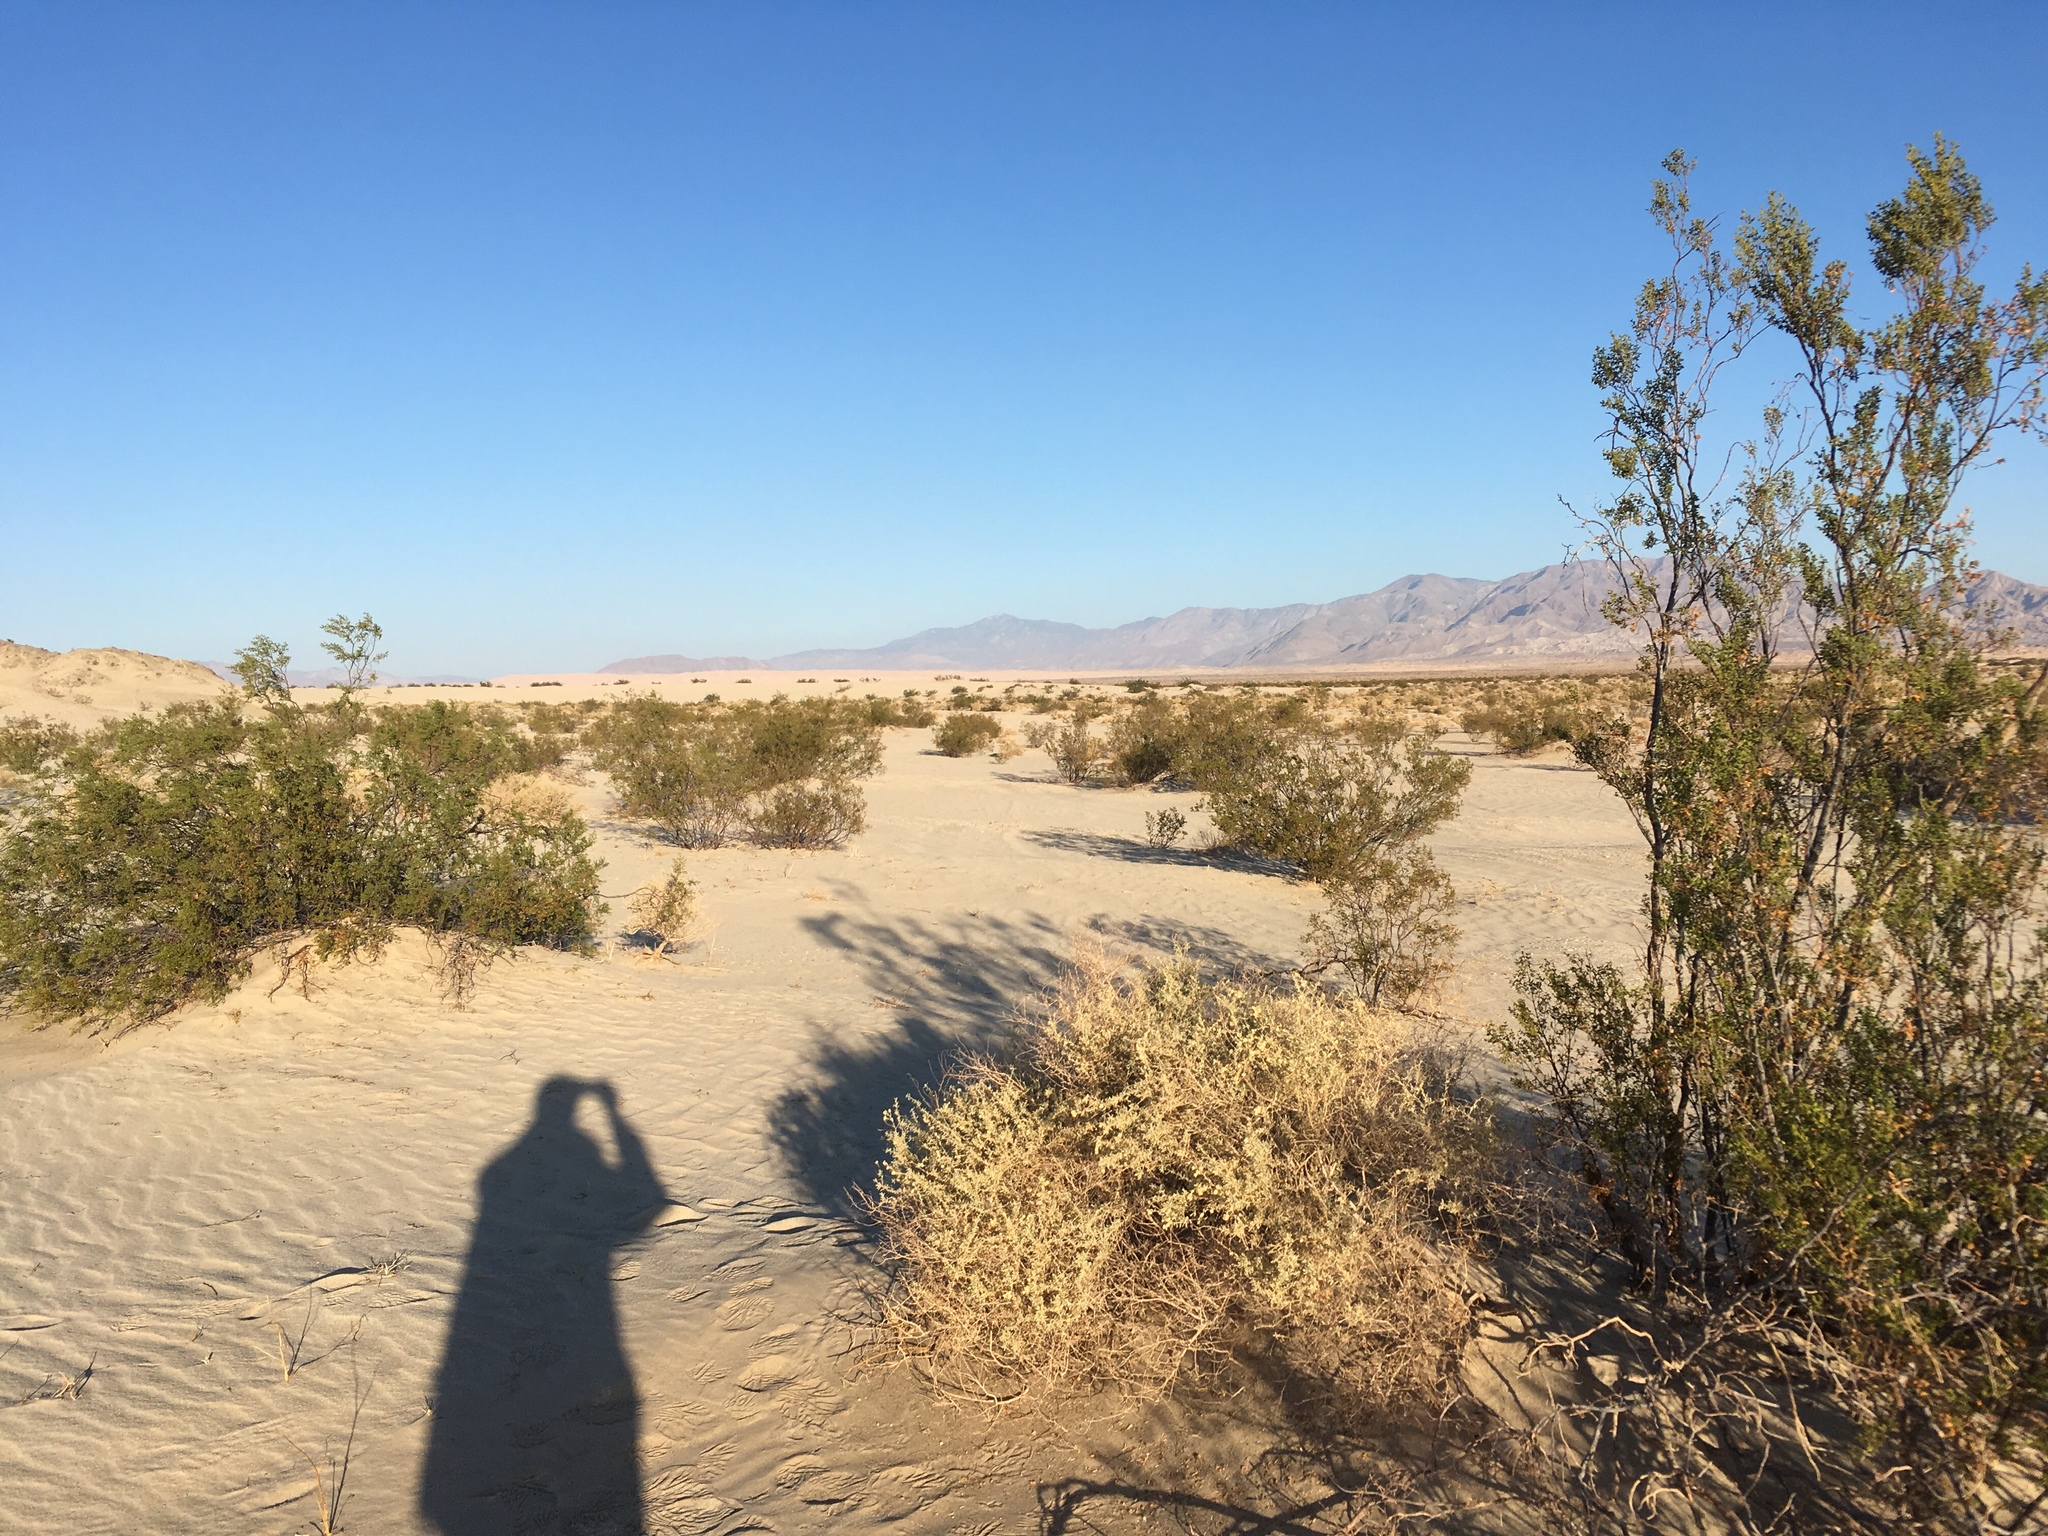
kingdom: Plantae
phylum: Tracheophyta
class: Magnoliopsida
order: Zygophyllales
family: Zygophyllaceae
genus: Larrea
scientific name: Larrea tridentata
